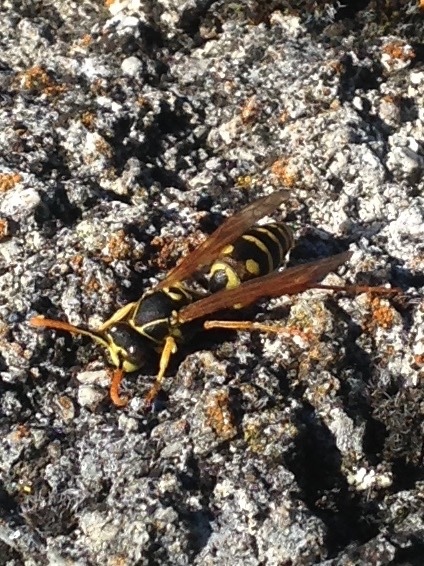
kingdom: Animalia
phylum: Arthropoda
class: Insecta
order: Hymenoptera
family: Eumenidae
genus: Polistes
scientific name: Polistes chinensis
